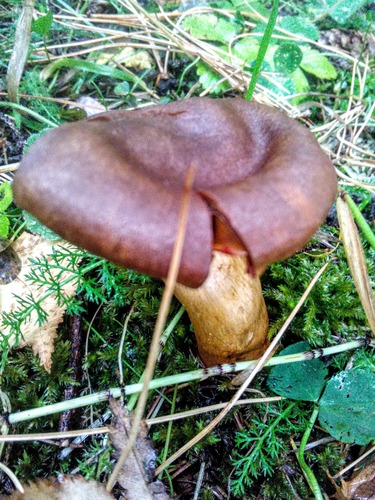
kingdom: Fungi
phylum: Basidiomycota
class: Agaricomycetes
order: Agaricales
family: Cortinariaceae
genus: Cortinarius
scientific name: Cortinarius cinnamomeus
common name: Cinnamon webcap
